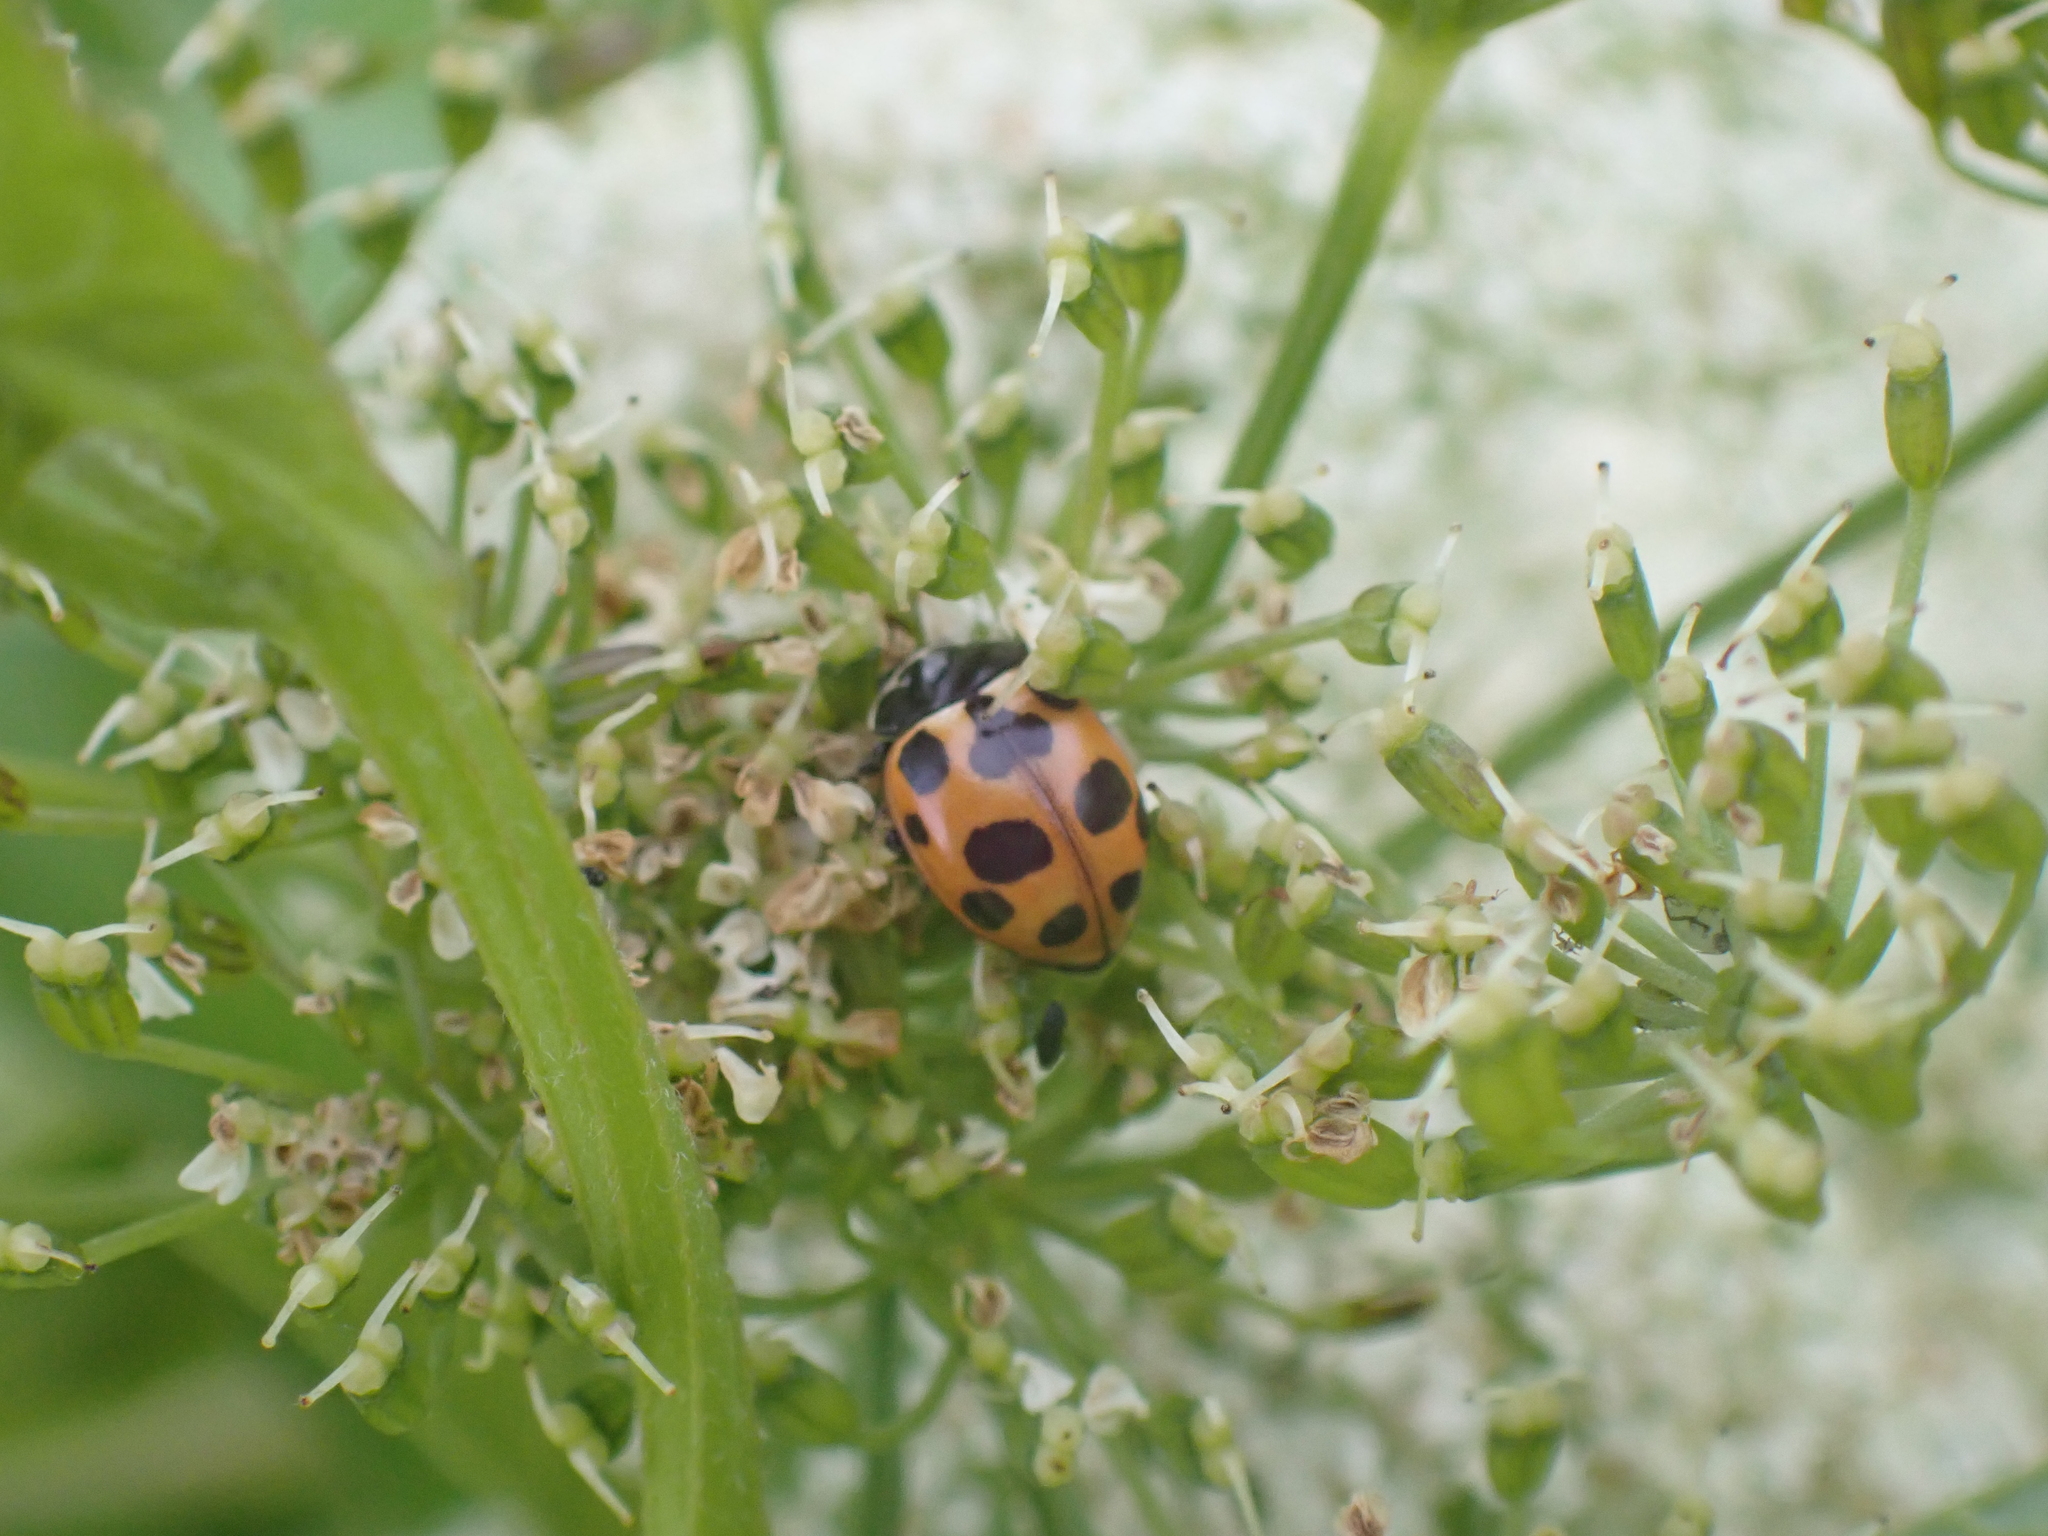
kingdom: Animalia
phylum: Arthropoda
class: Insecta
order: Coleoptera
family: Coccinellidae
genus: Ceratomegilla
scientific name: Ceratomegilla notata
